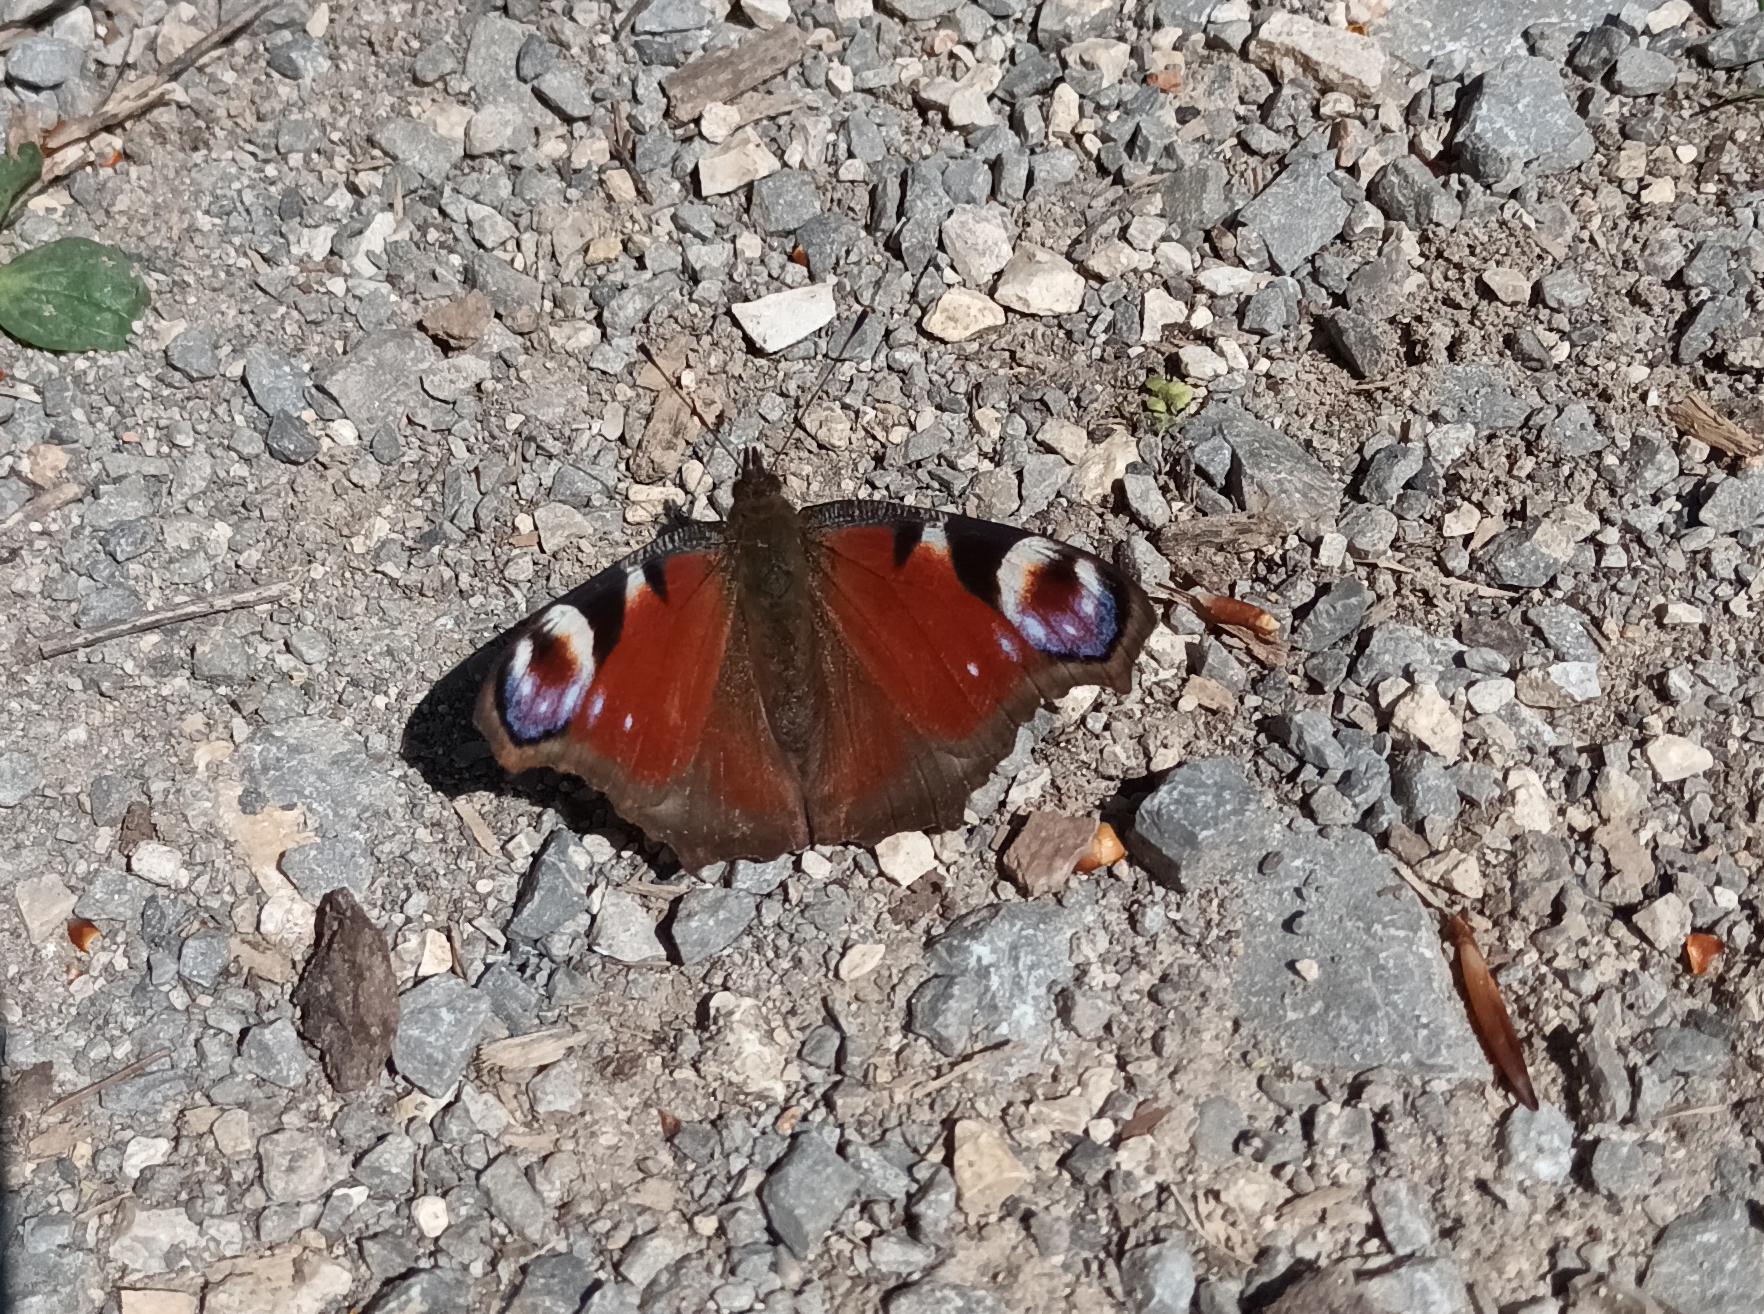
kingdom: Animalia
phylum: Arthropoda
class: Insecta
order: Lepidoptera
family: Nymphalidae
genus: Aglais
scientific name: Aglais io
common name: Peacock
